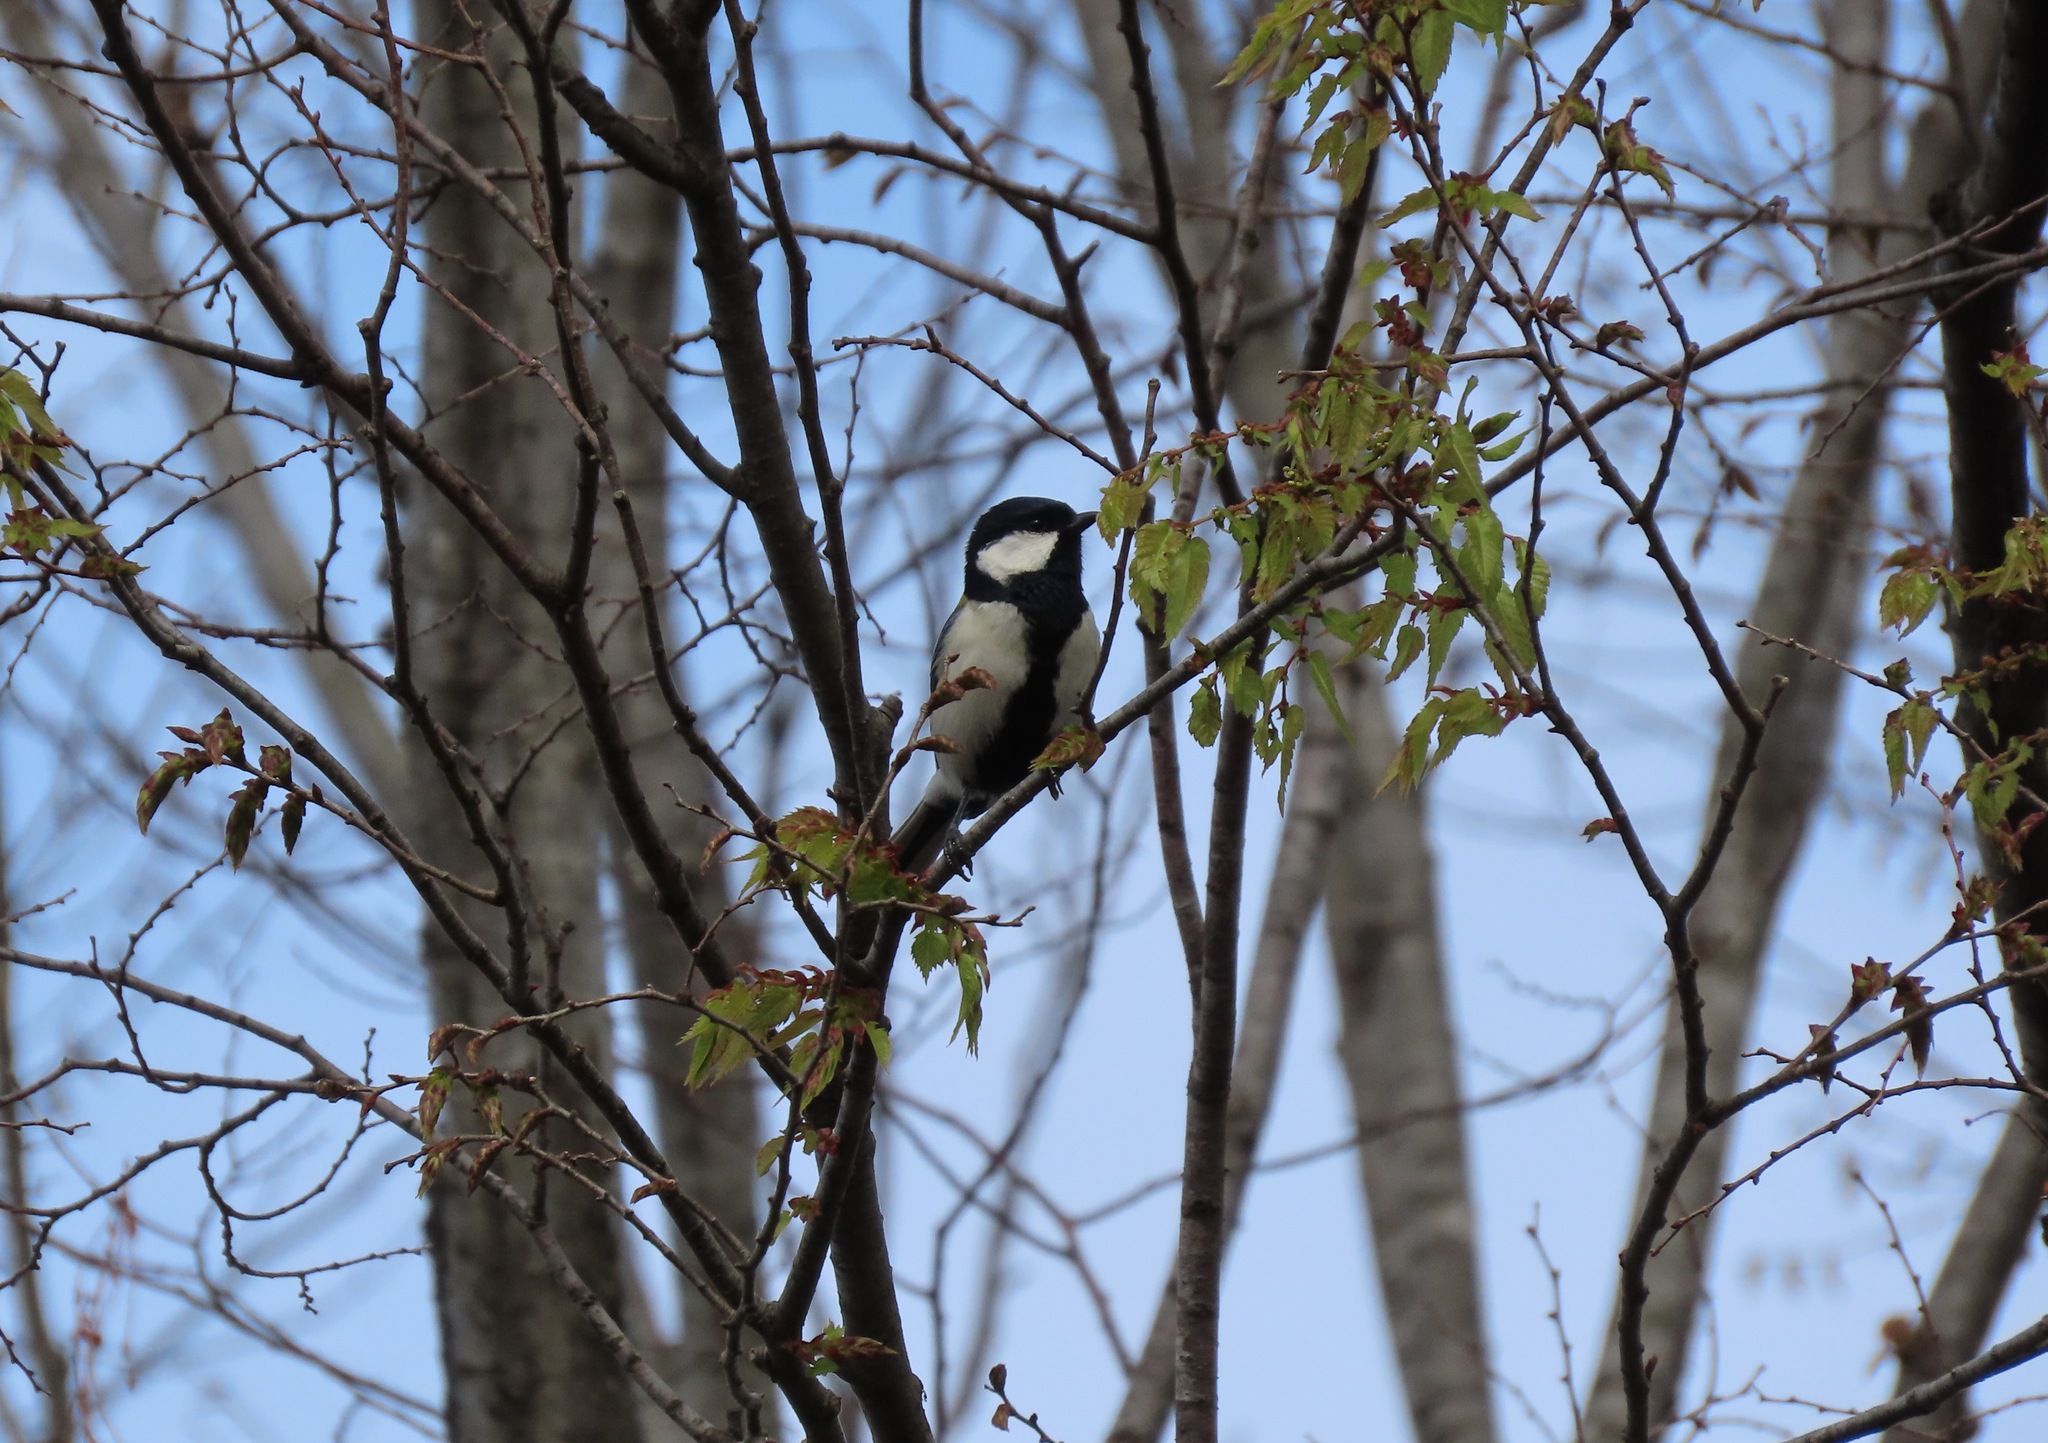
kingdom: Animalia
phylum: Chordata
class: Aves
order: Passeriformes
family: Paridae
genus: Parus
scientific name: Parus minor
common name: Japanese tit
